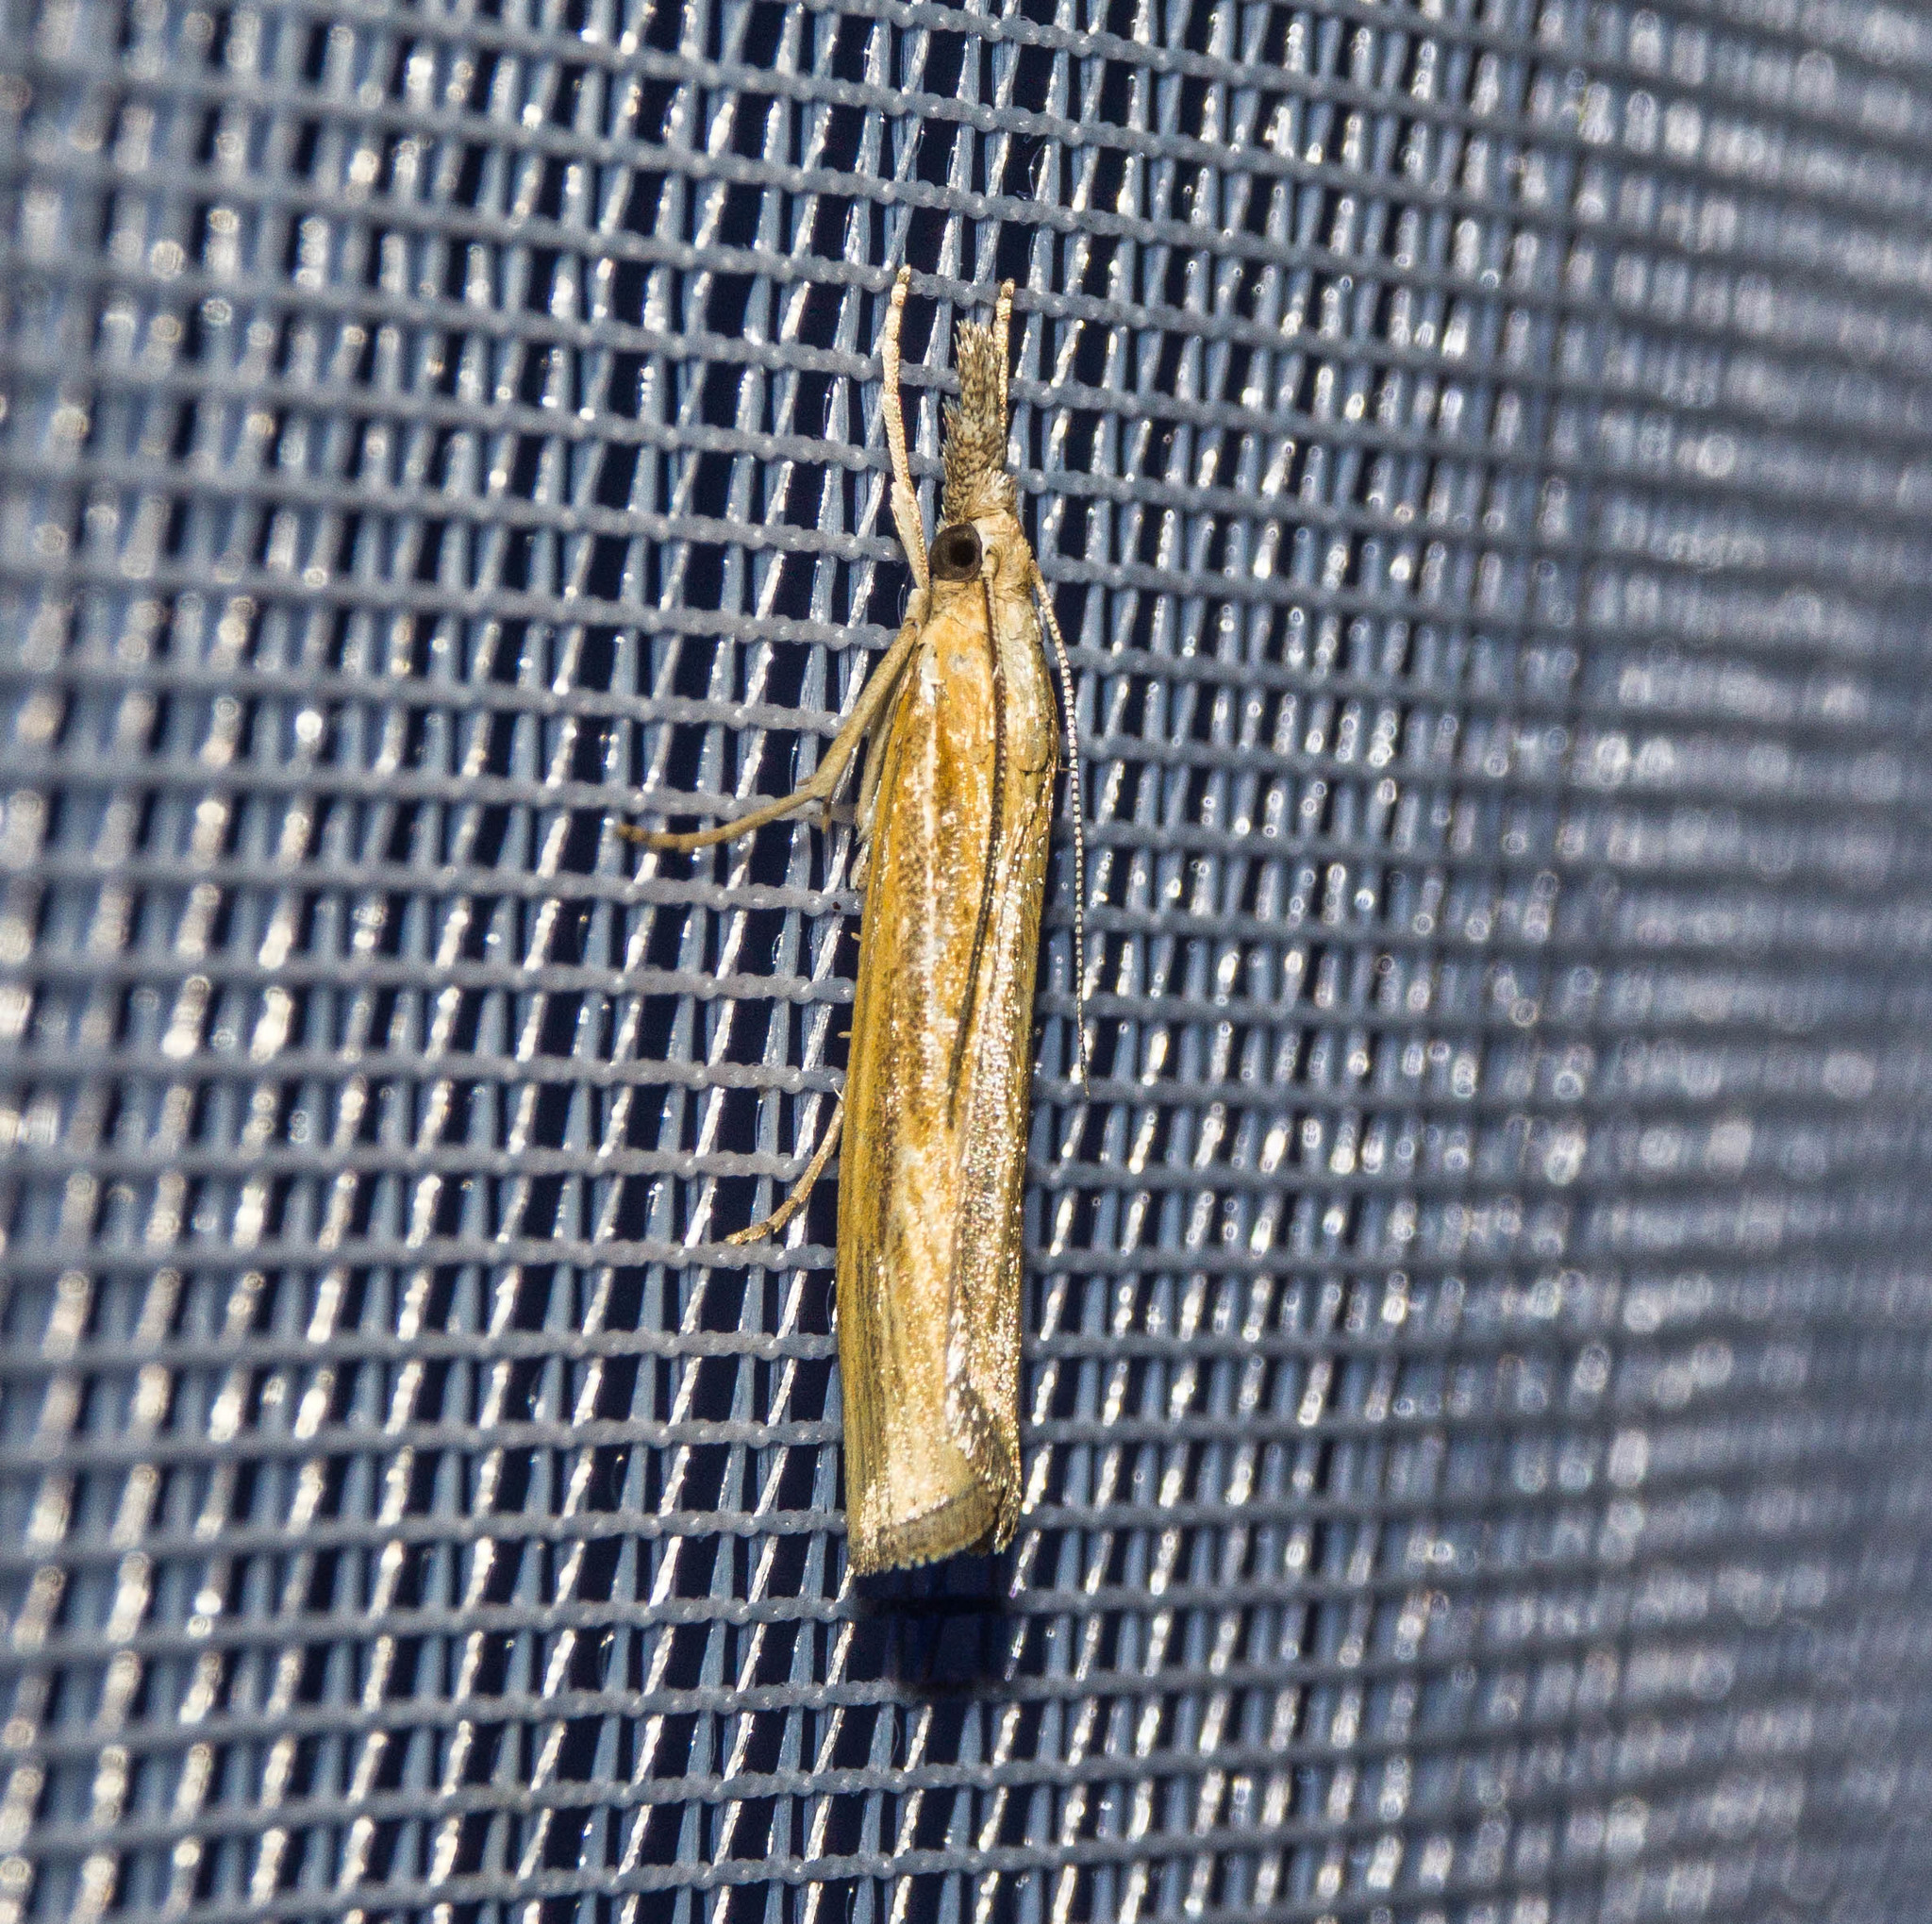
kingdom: Animalia
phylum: Arthropoda
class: Insecta
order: Lepidoptera
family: Crambidae
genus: Agriphila
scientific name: Agriphila tristellus
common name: Common grass-veneer
